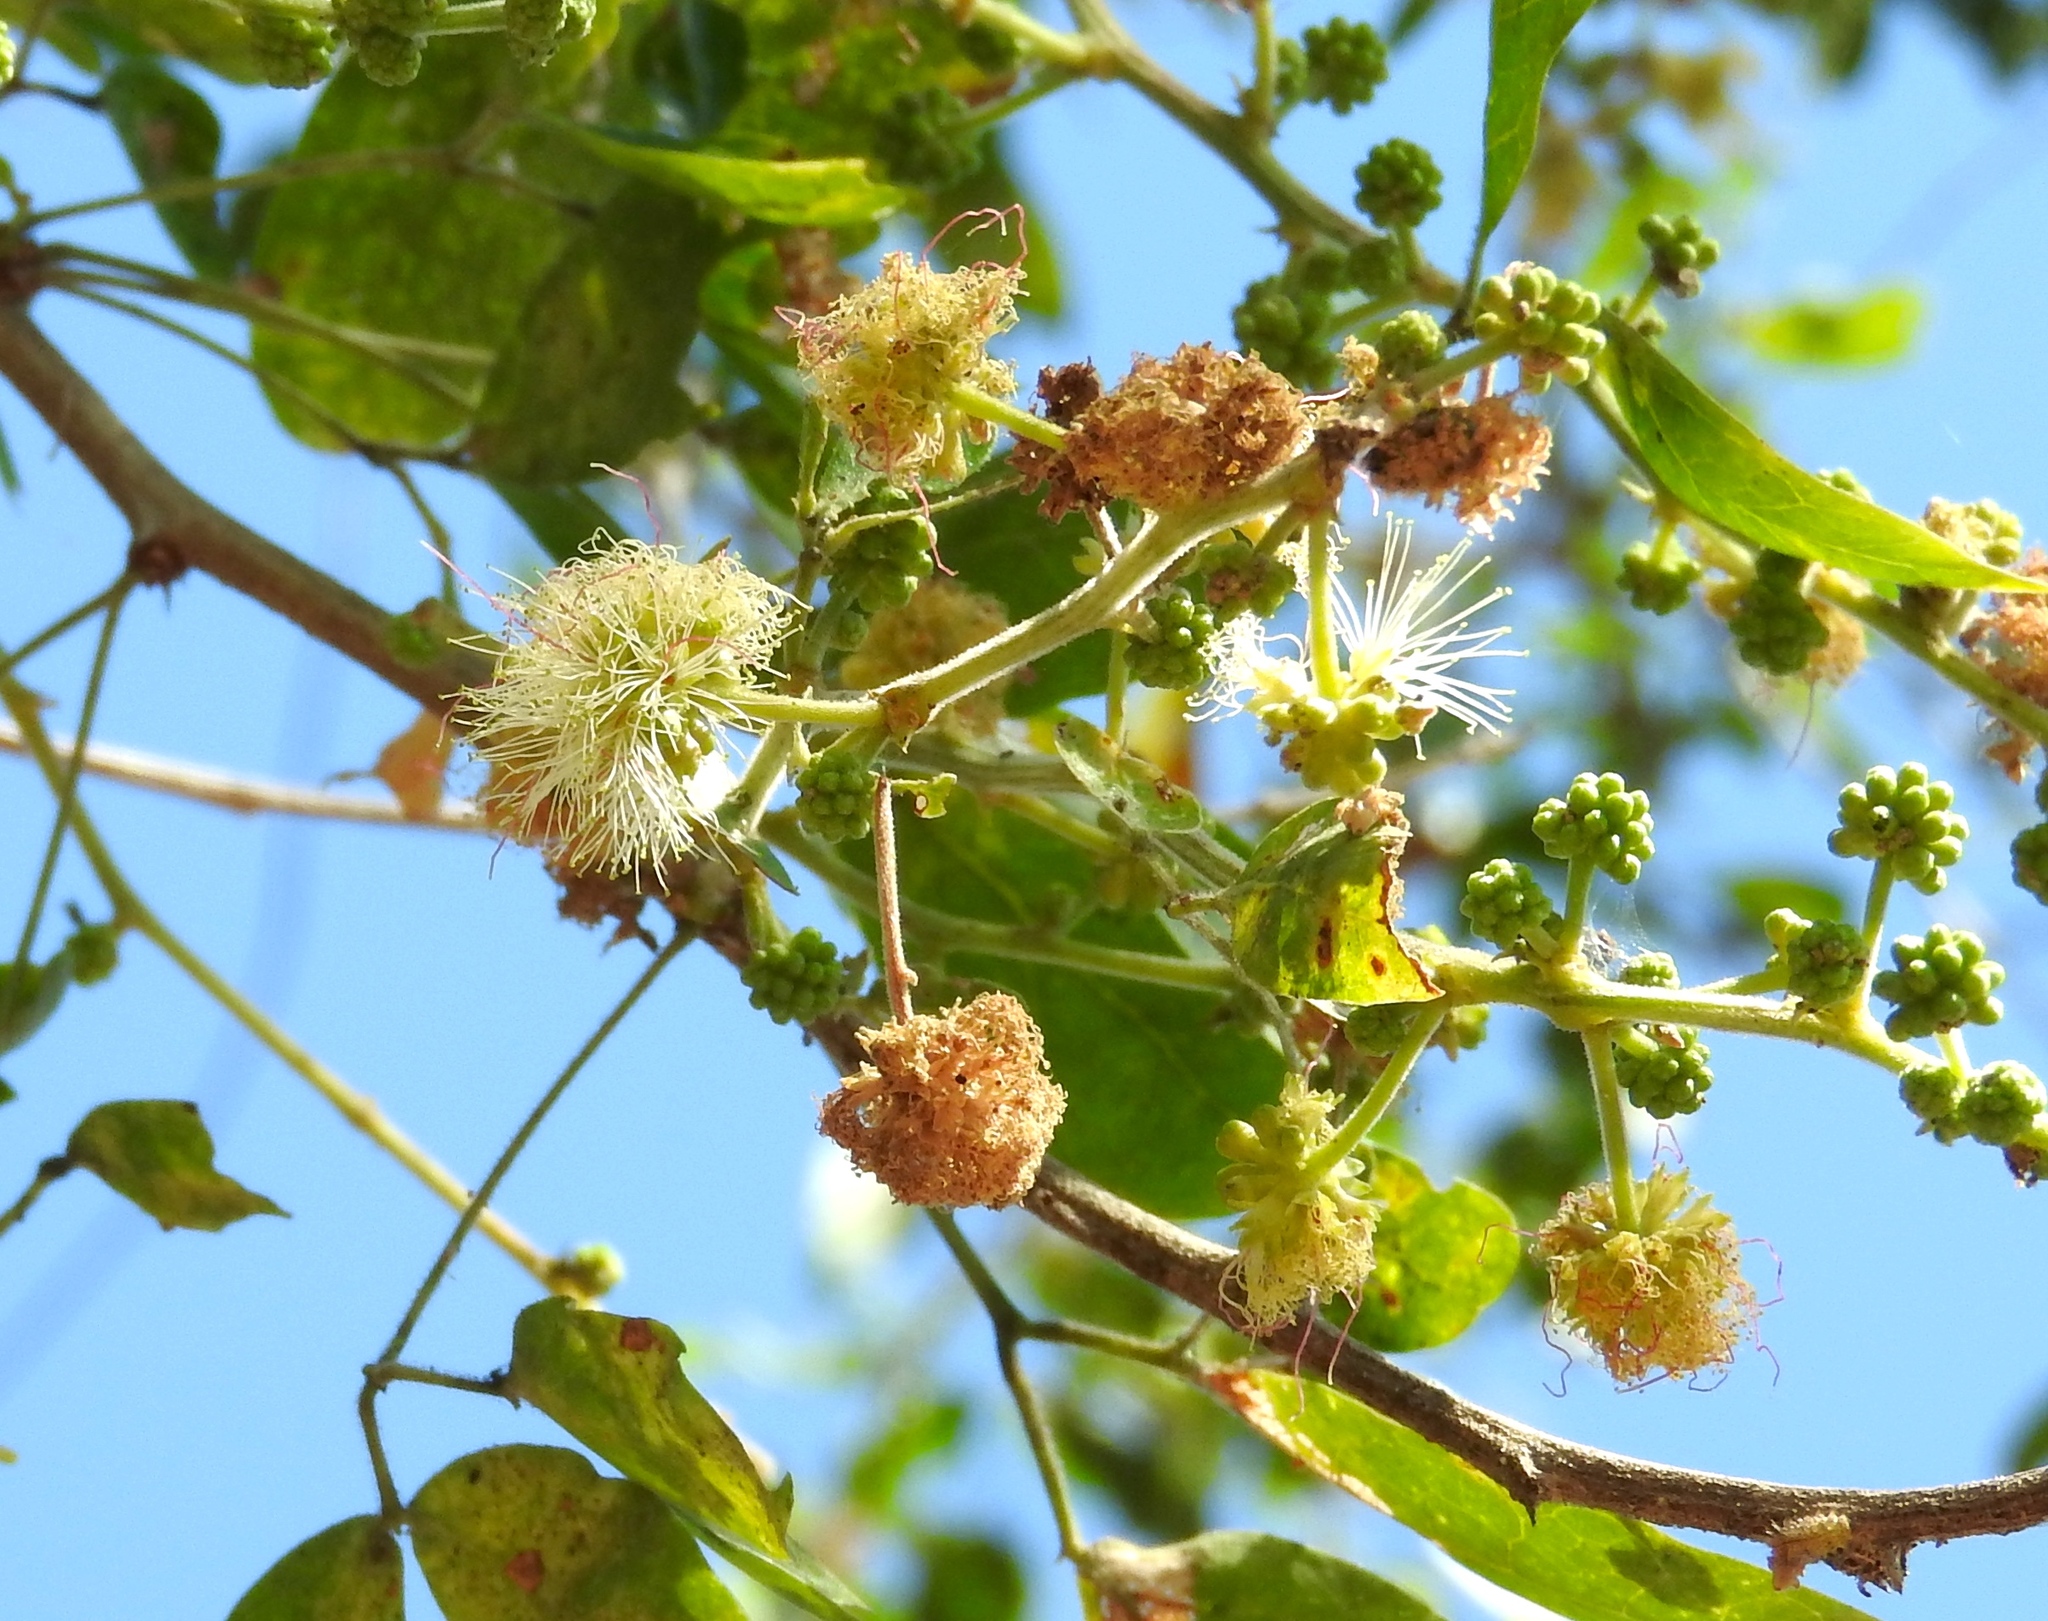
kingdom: Plantae
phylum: Tracheophyta
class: Magnoliopsida
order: Fabales
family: Fabaceae
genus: Pithecellobium
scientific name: Pithecellobium dulce
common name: Monkeypod
